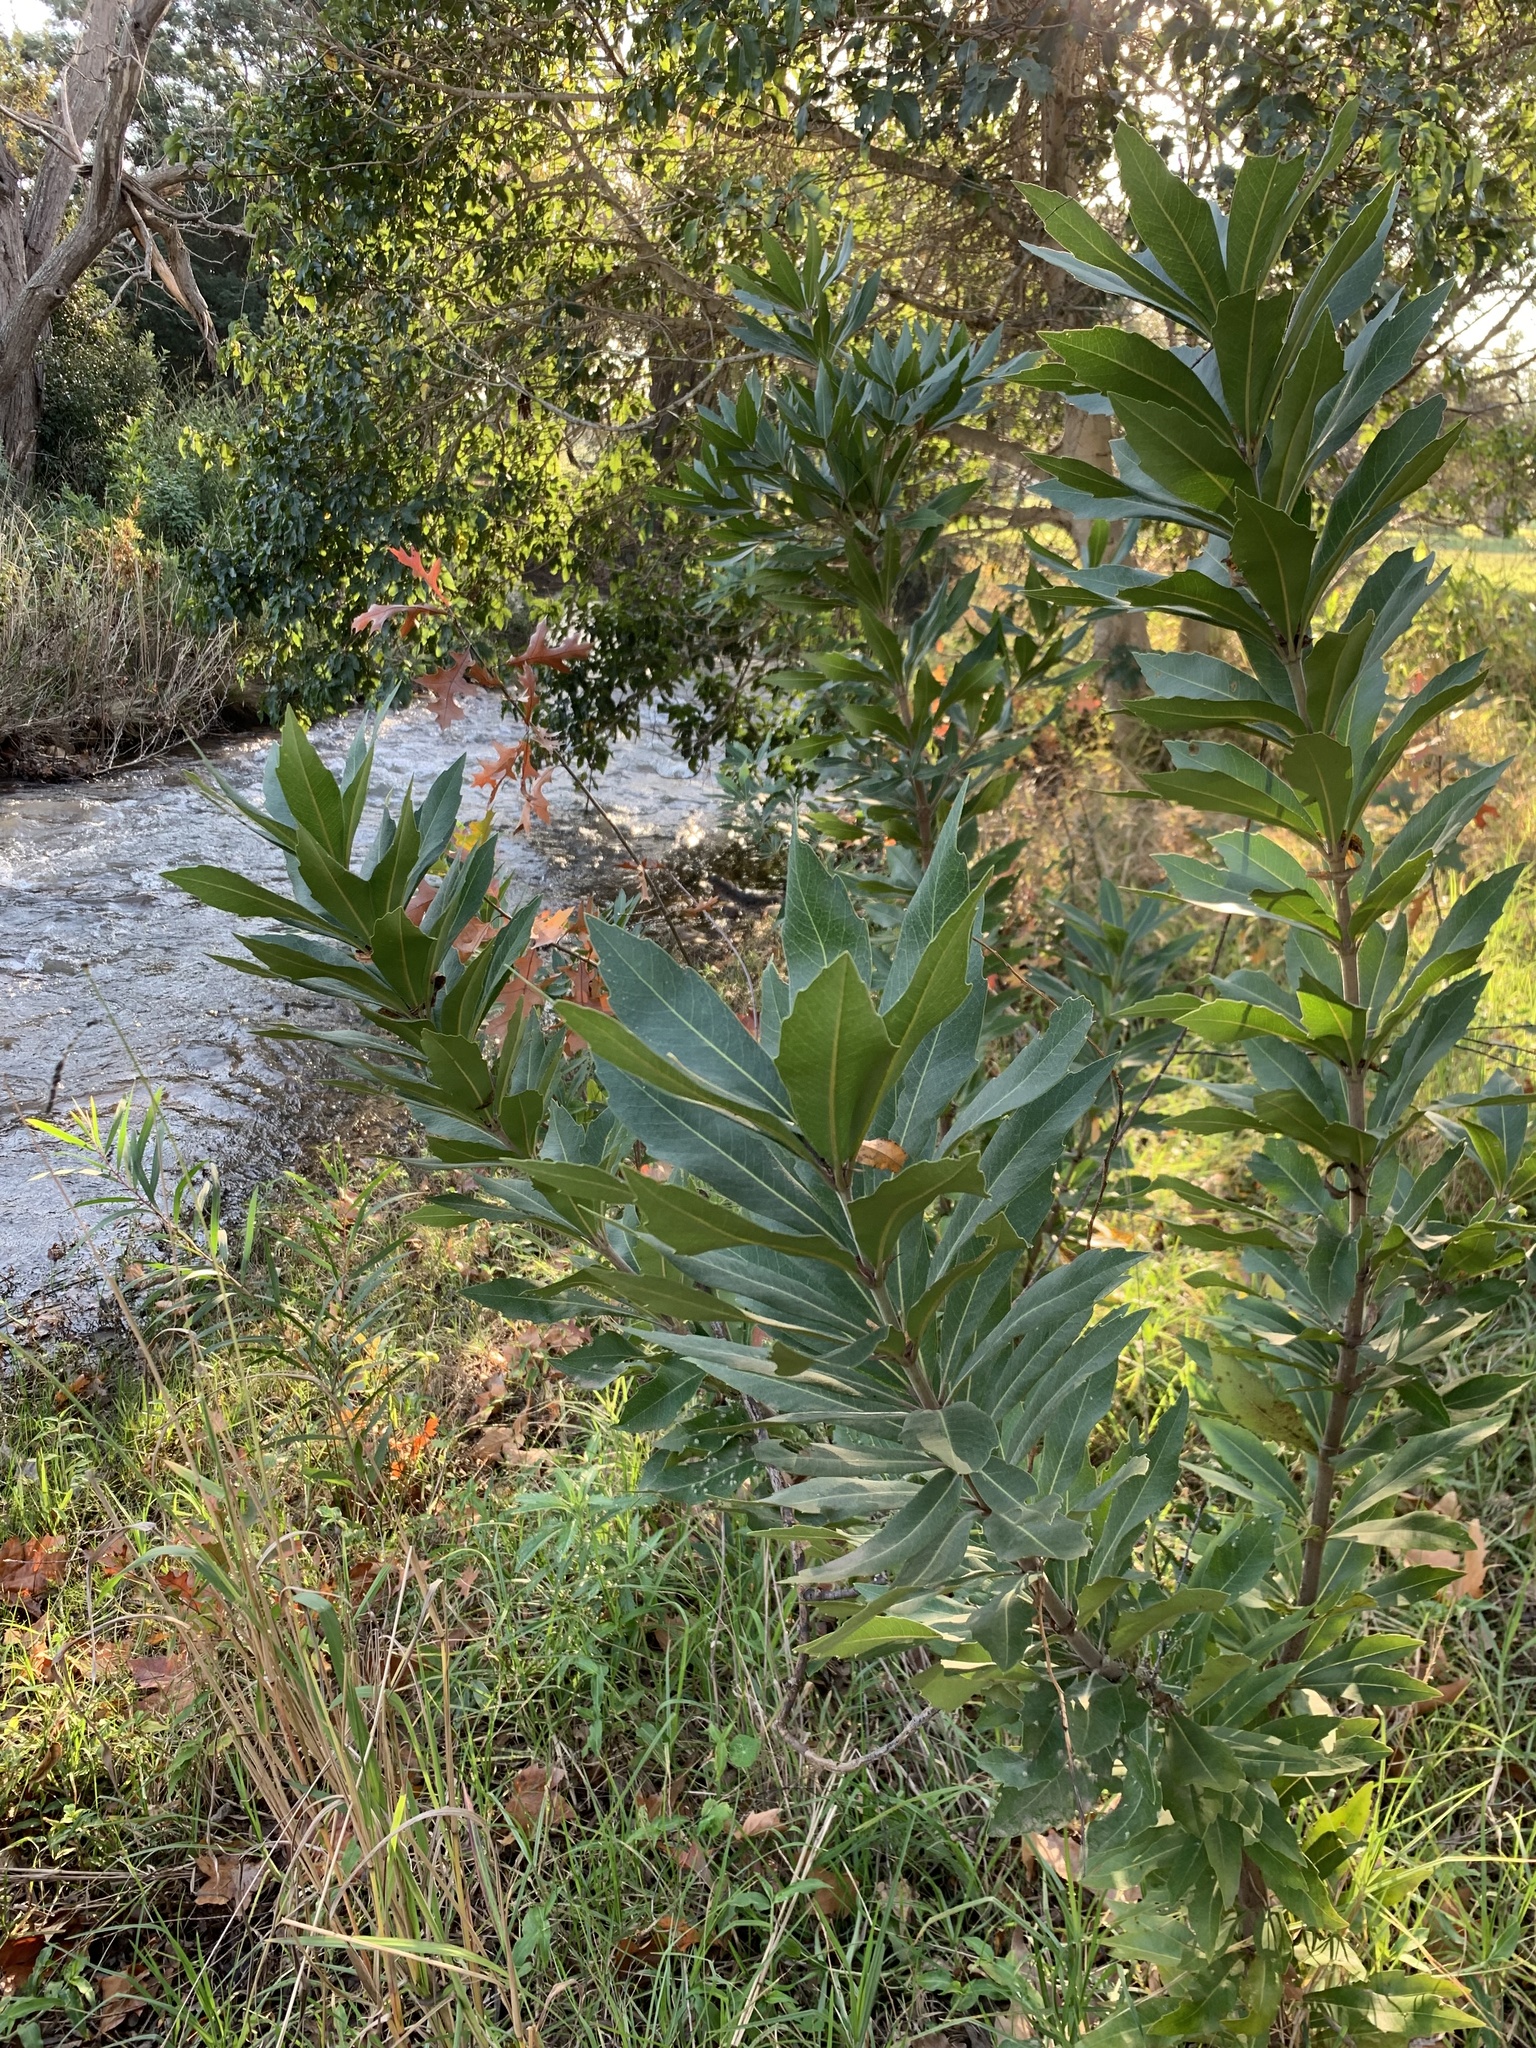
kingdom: Plantae
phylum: Tracheophyta
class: Magnoliopsida
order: Proteales
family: Proteaceae
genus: Brabejum
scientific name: Brabejum stellatifolium
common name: Wild almond
